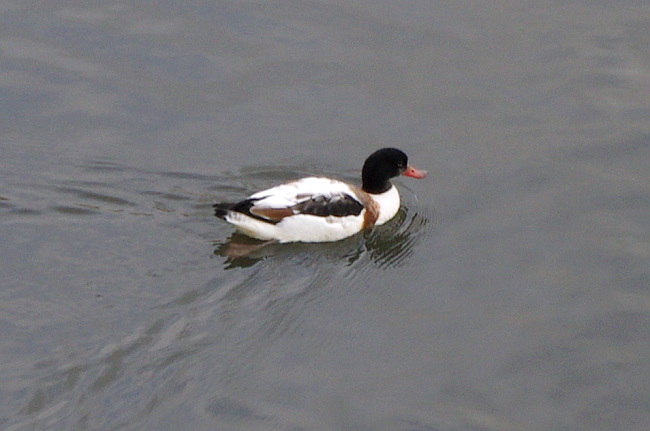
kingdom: Animalia
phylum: Chordata
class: Aves
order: Anseriformes
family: Anatidae
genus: Tadorna
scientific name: Tadorna tadorna
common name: Common shelduck
